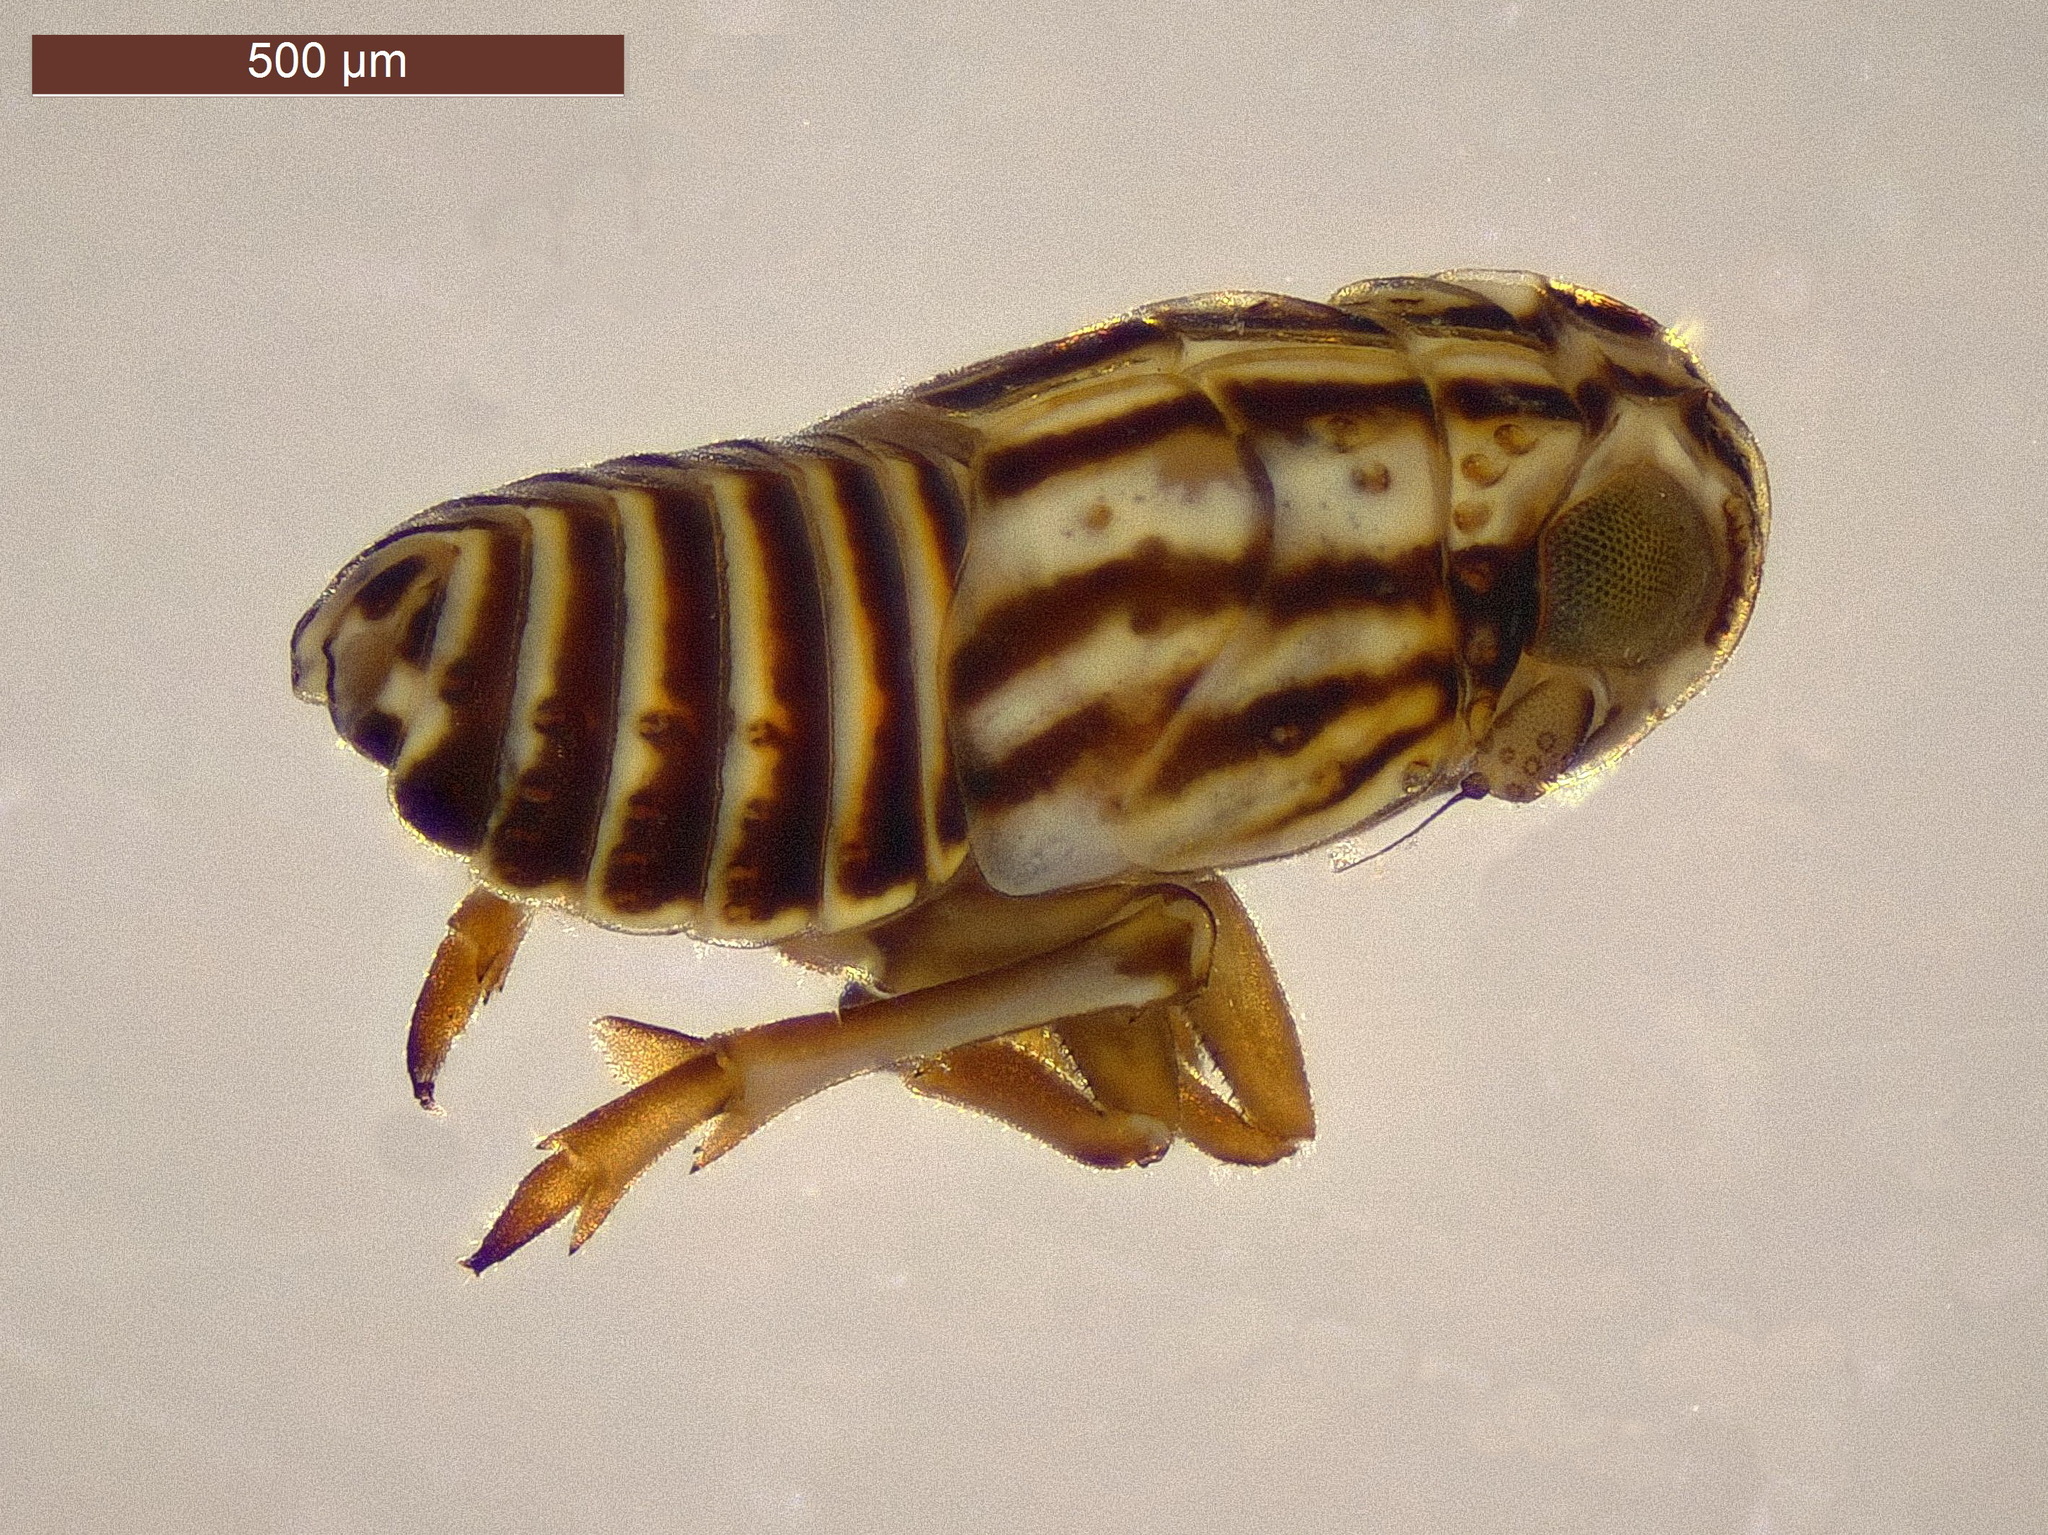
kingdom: Animalia
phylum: Arthropoda
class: Insecta
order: Hemiptera
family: Delphacidae
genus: Eurybregma
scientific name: Eurybregma nigrolineata
